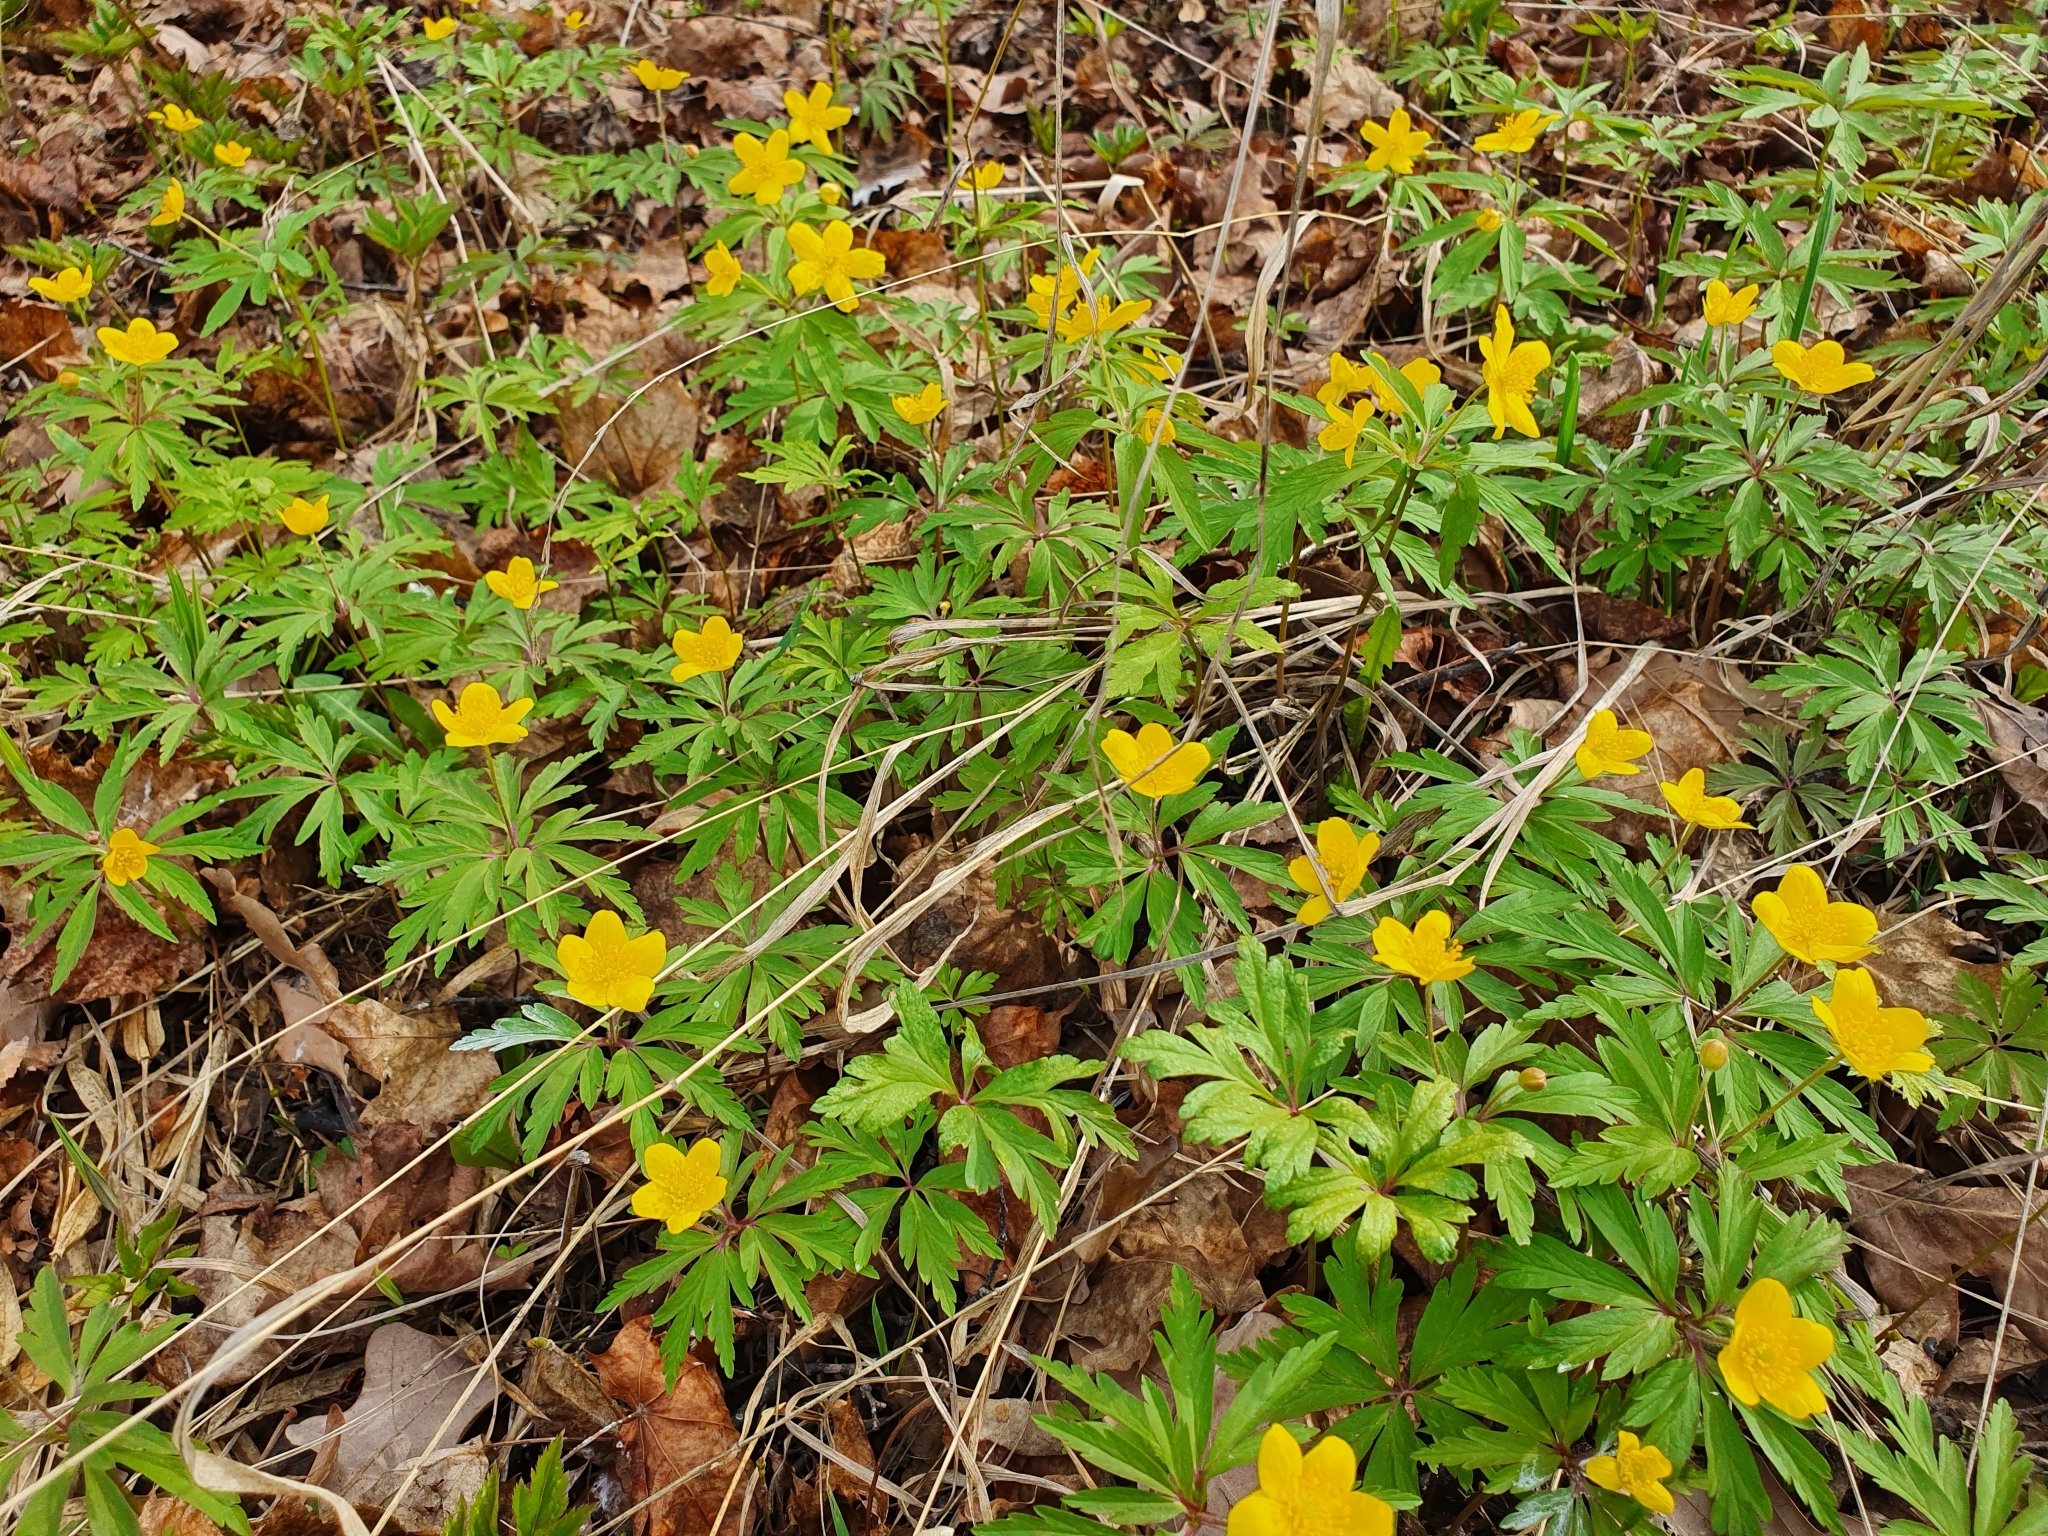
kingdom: Plantae
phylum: Tracheophyta
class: Magnoliopsida
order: Ranunculales
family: Ranunculaceae
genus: Anemone
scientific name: Anemone ranunculoides
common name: Yellow anemone
